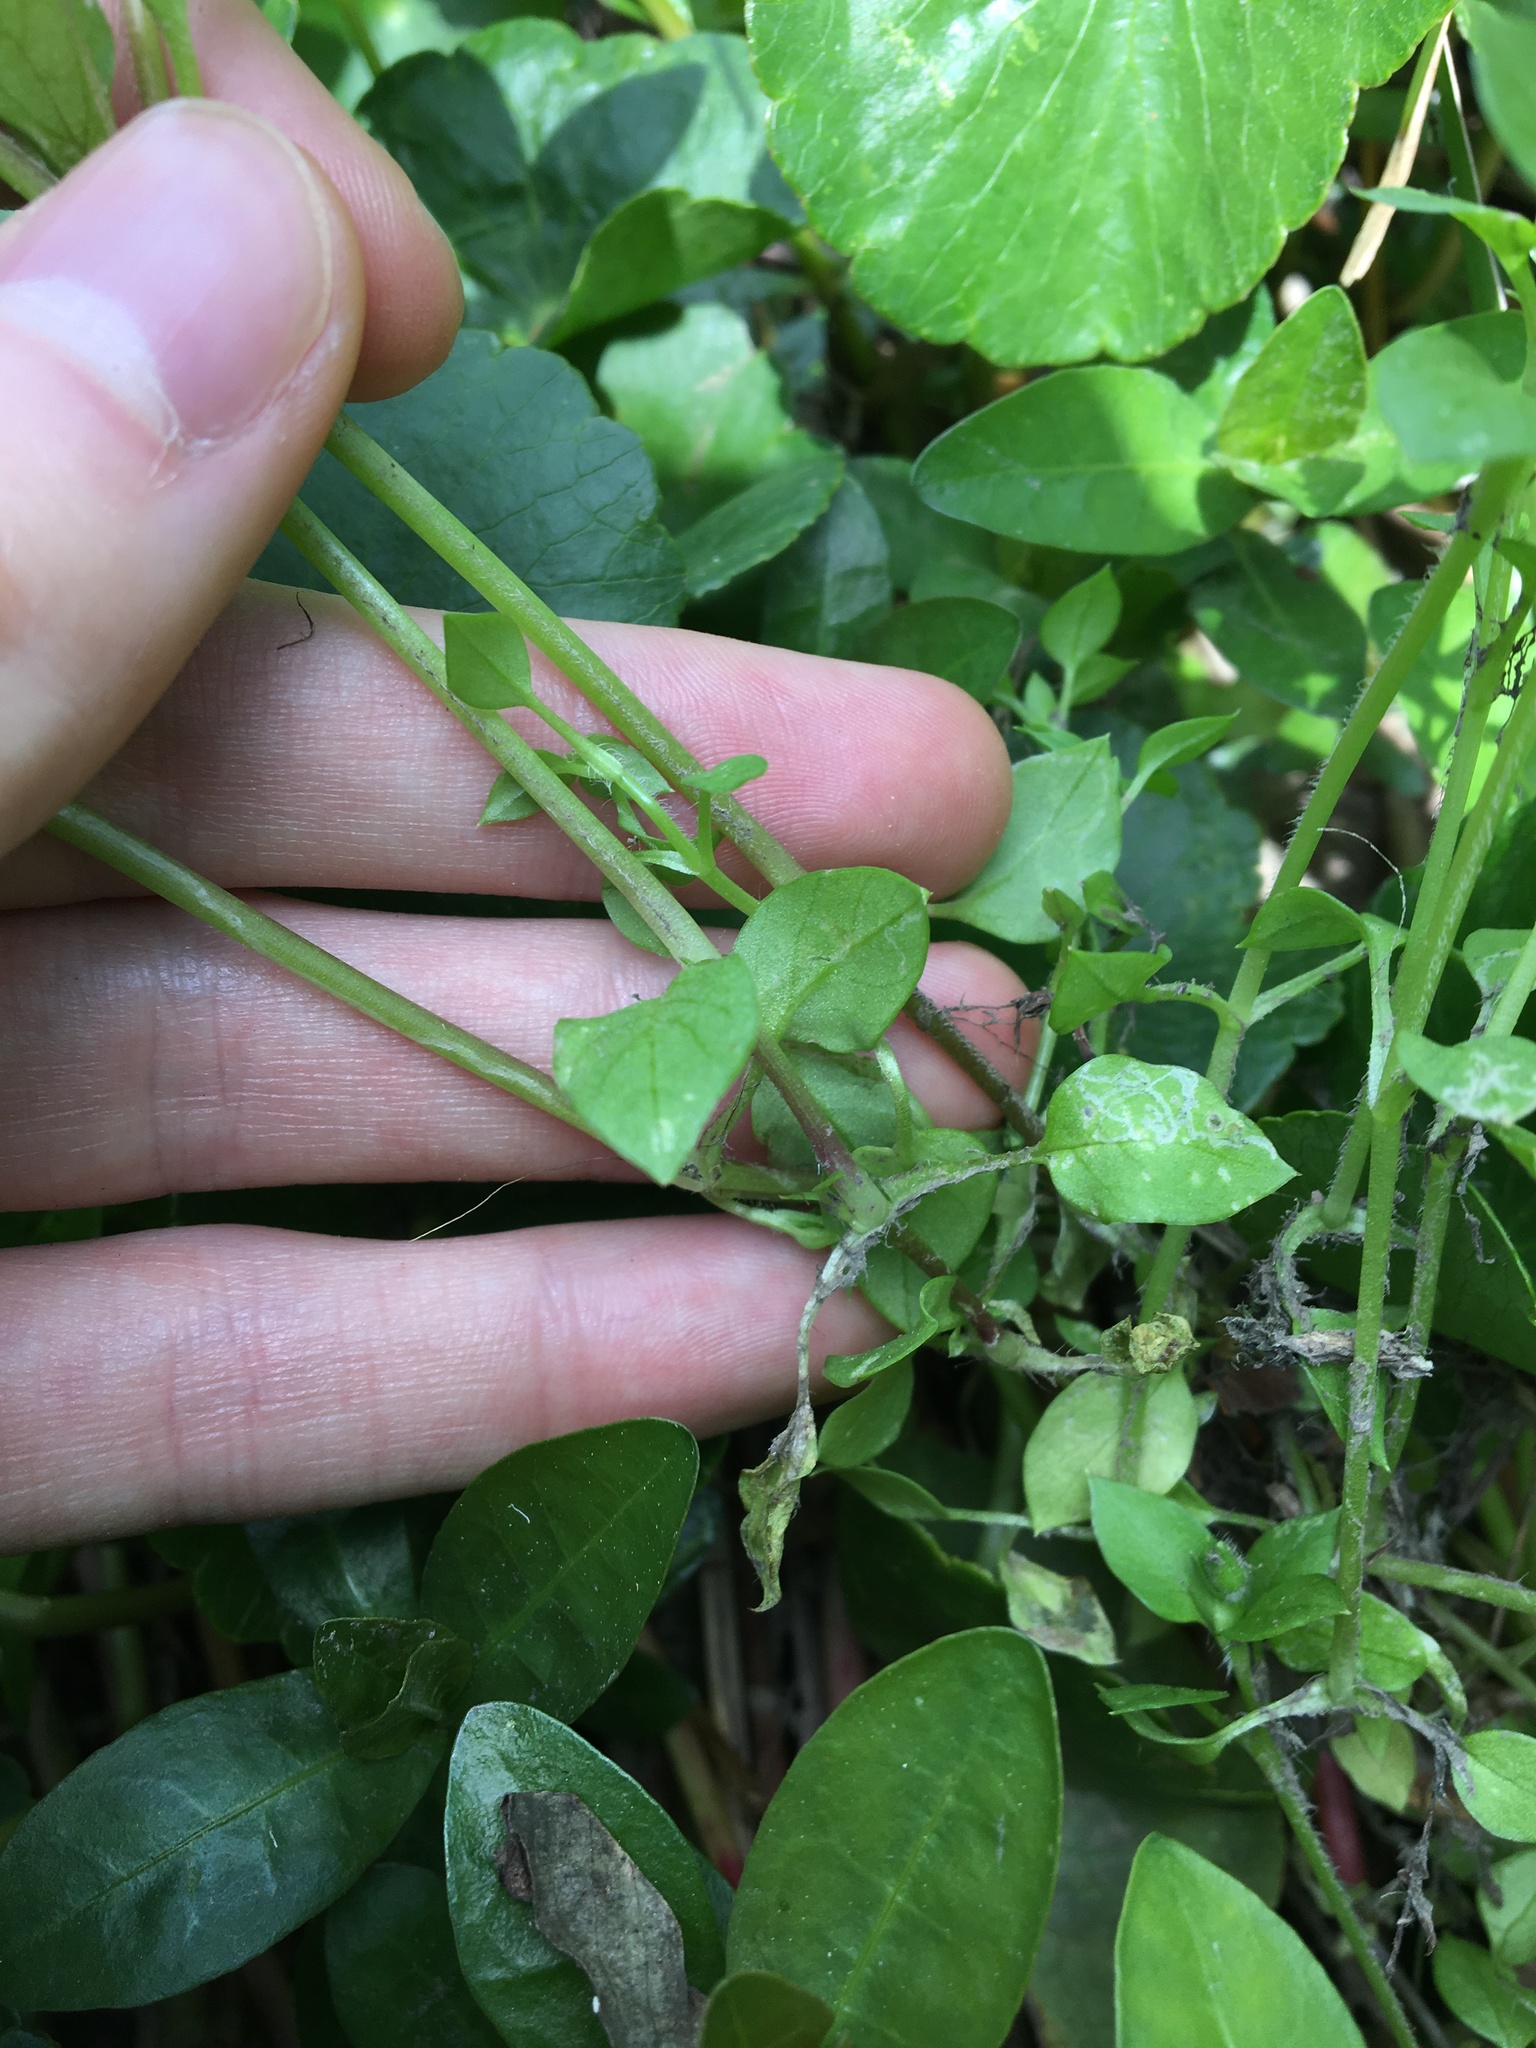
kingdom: Plantae
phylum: Tracheophyta
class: Magnoliopsida
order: Caryophyllales
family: Caryophyllaceae
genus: Stellaria
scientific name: Stellaria media
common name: Common chickweed
